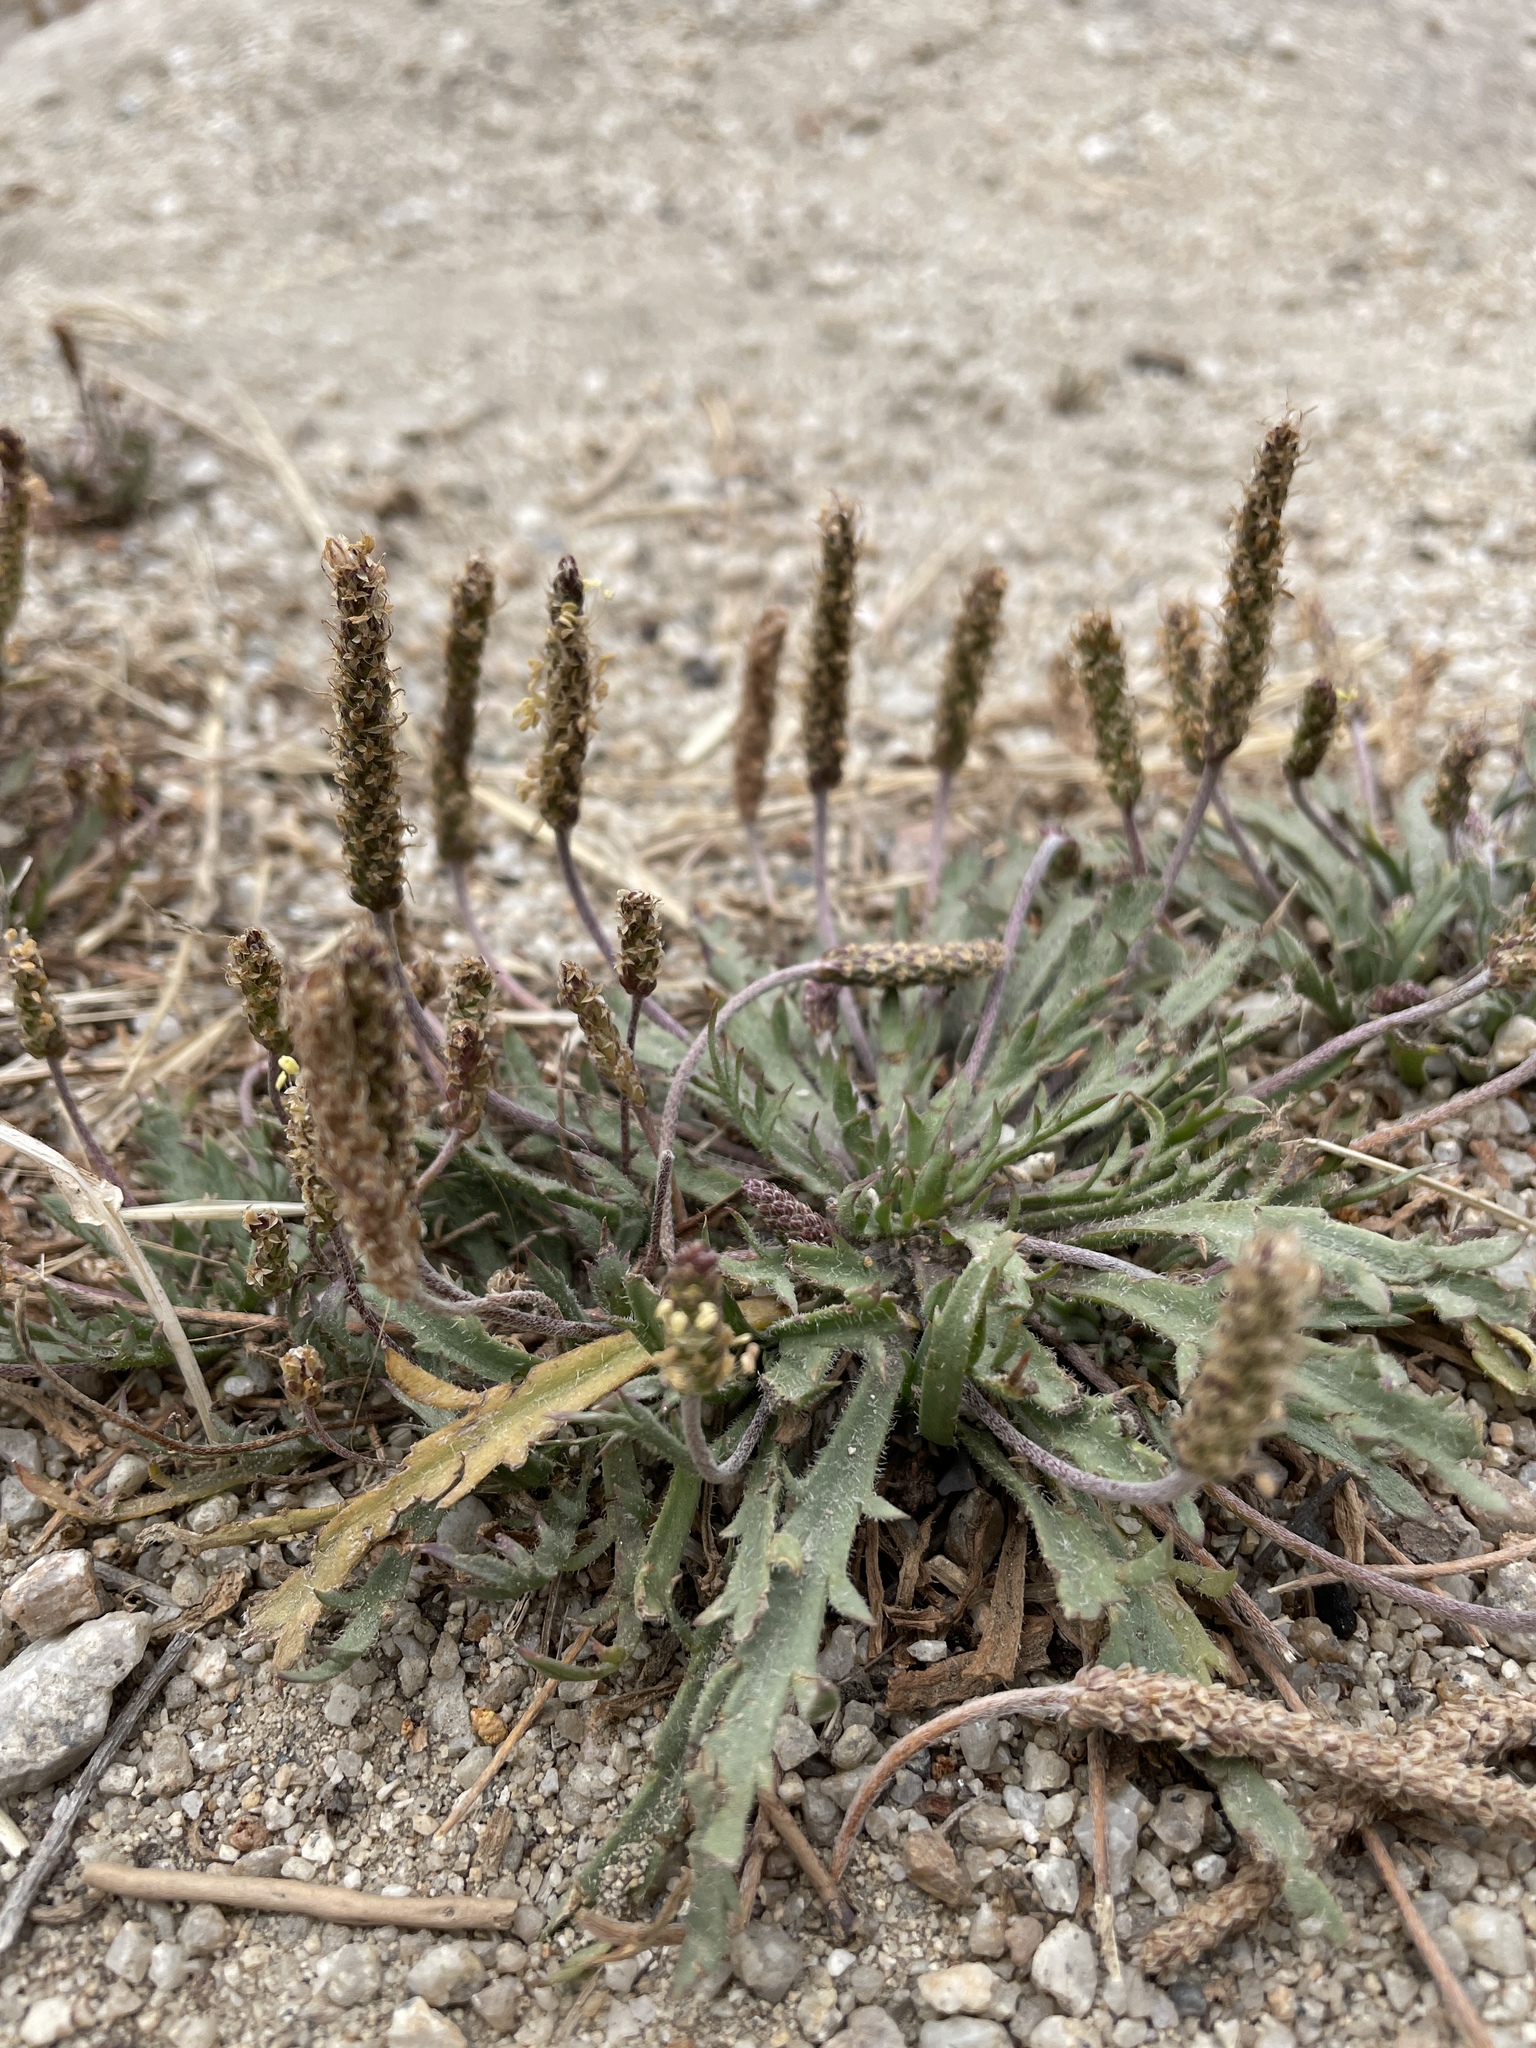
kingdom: Plantae
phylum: Tracheophyta
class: Magnoliopsida
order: Lamiales
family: Plantaginaceae
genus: Plantago
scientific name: Plantago coronopus
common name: Buck's-horn plantain
